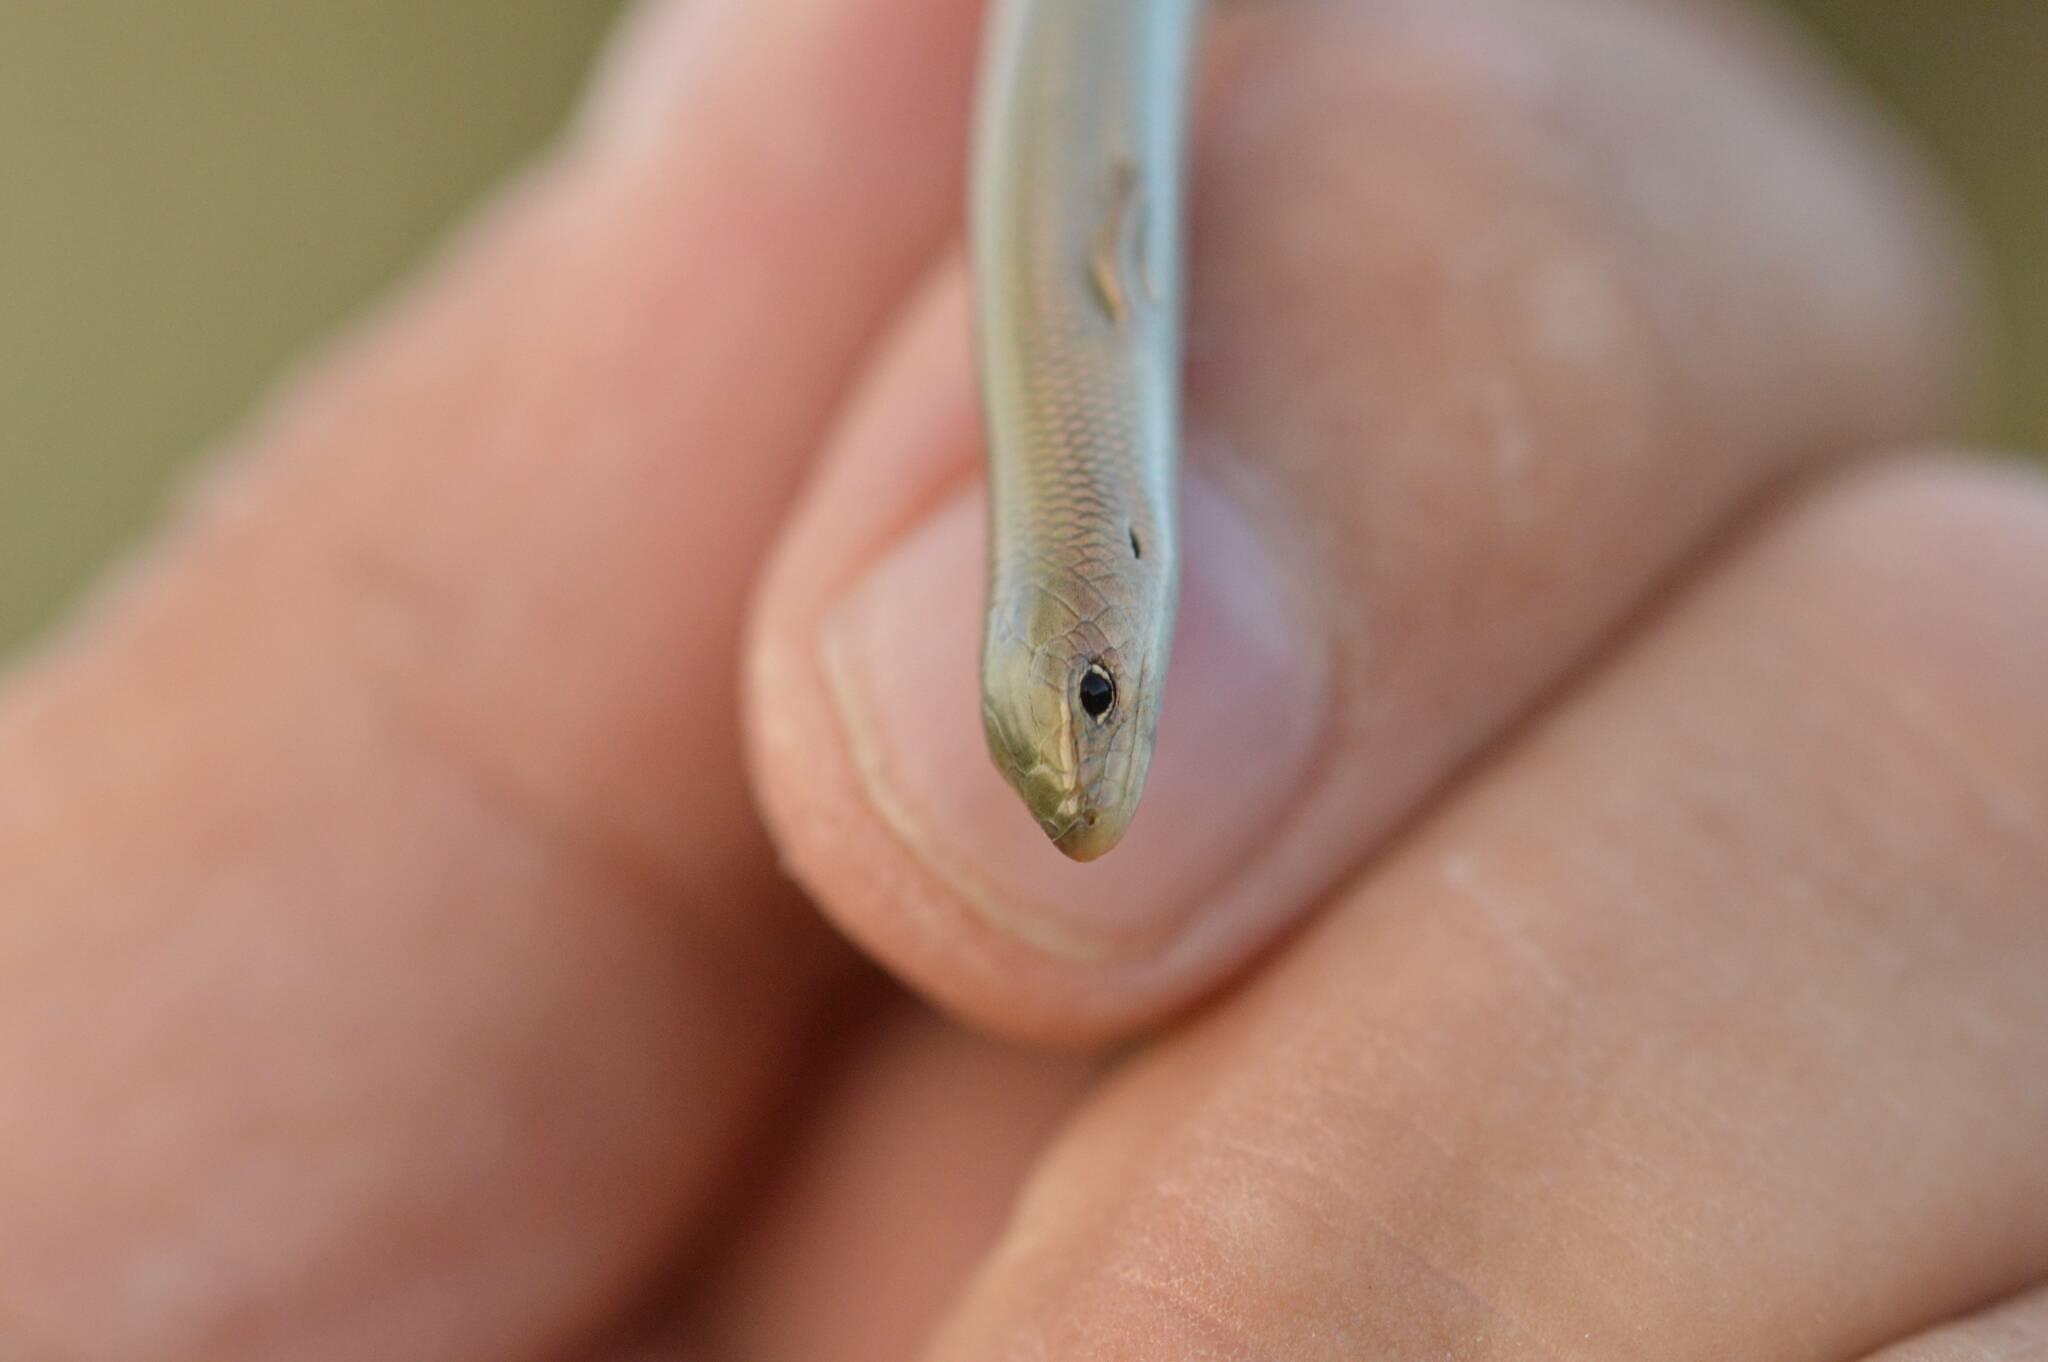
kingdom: Animalia
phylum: Chordata
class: Squamata
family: Scincidae
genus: Chalcides
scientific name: Chalcides mertensi
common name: Algerian three-toed skink
